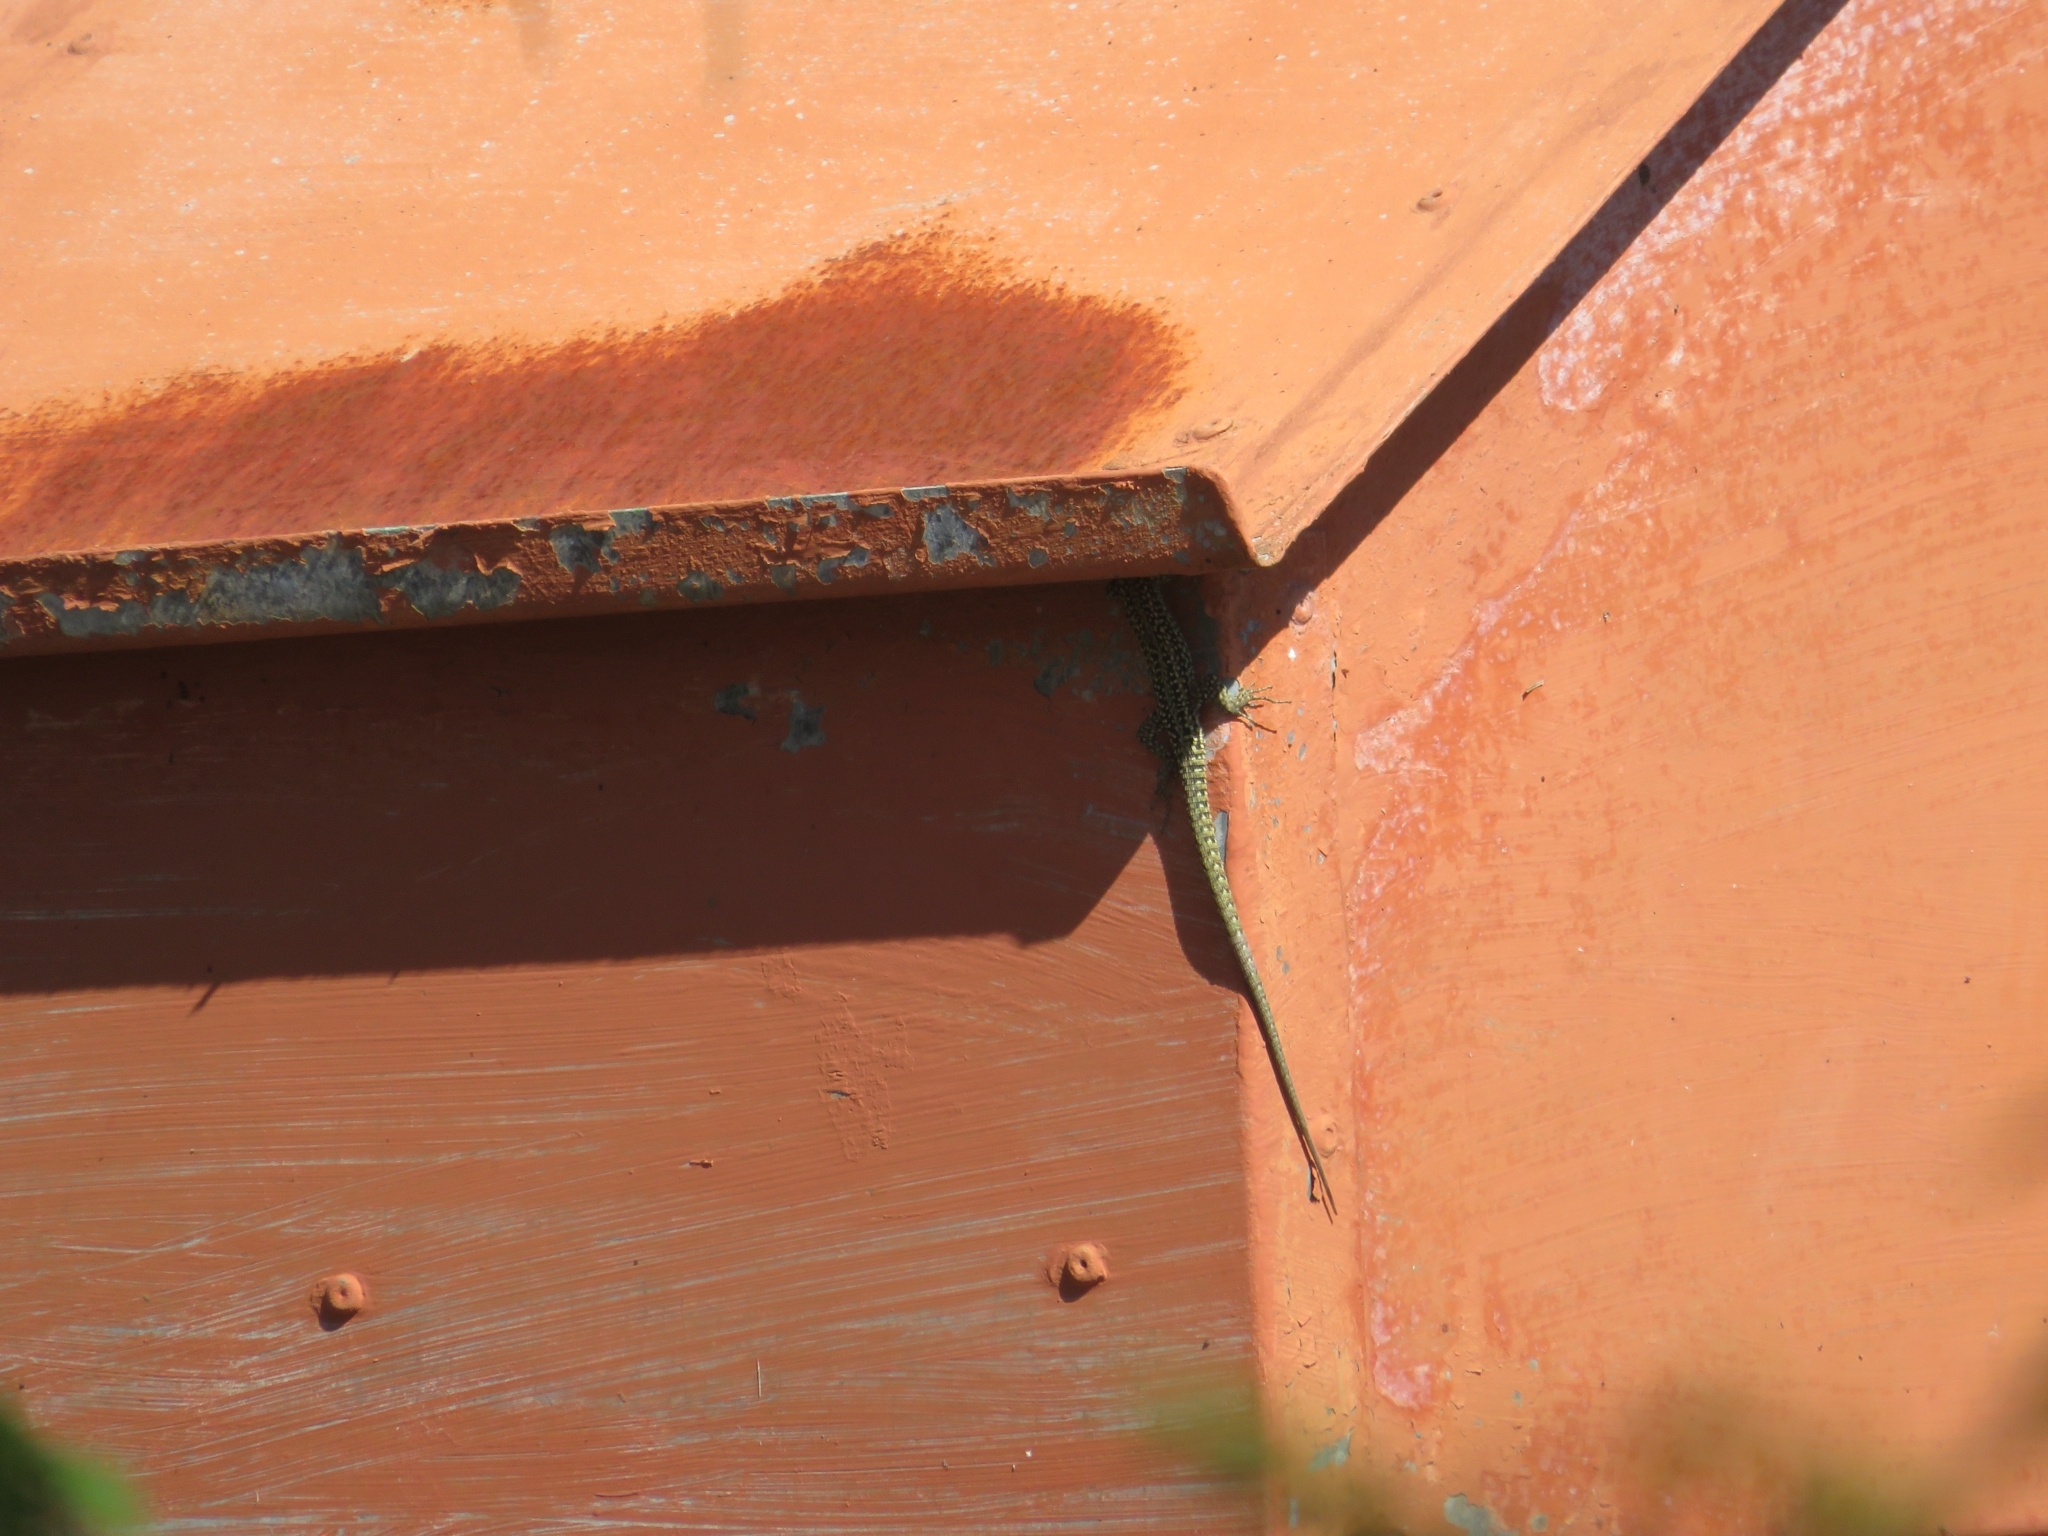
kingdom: Animalia
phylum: Chordata
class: Squamata
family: Lacertidae
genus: Podarcis
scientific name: Podarcis
